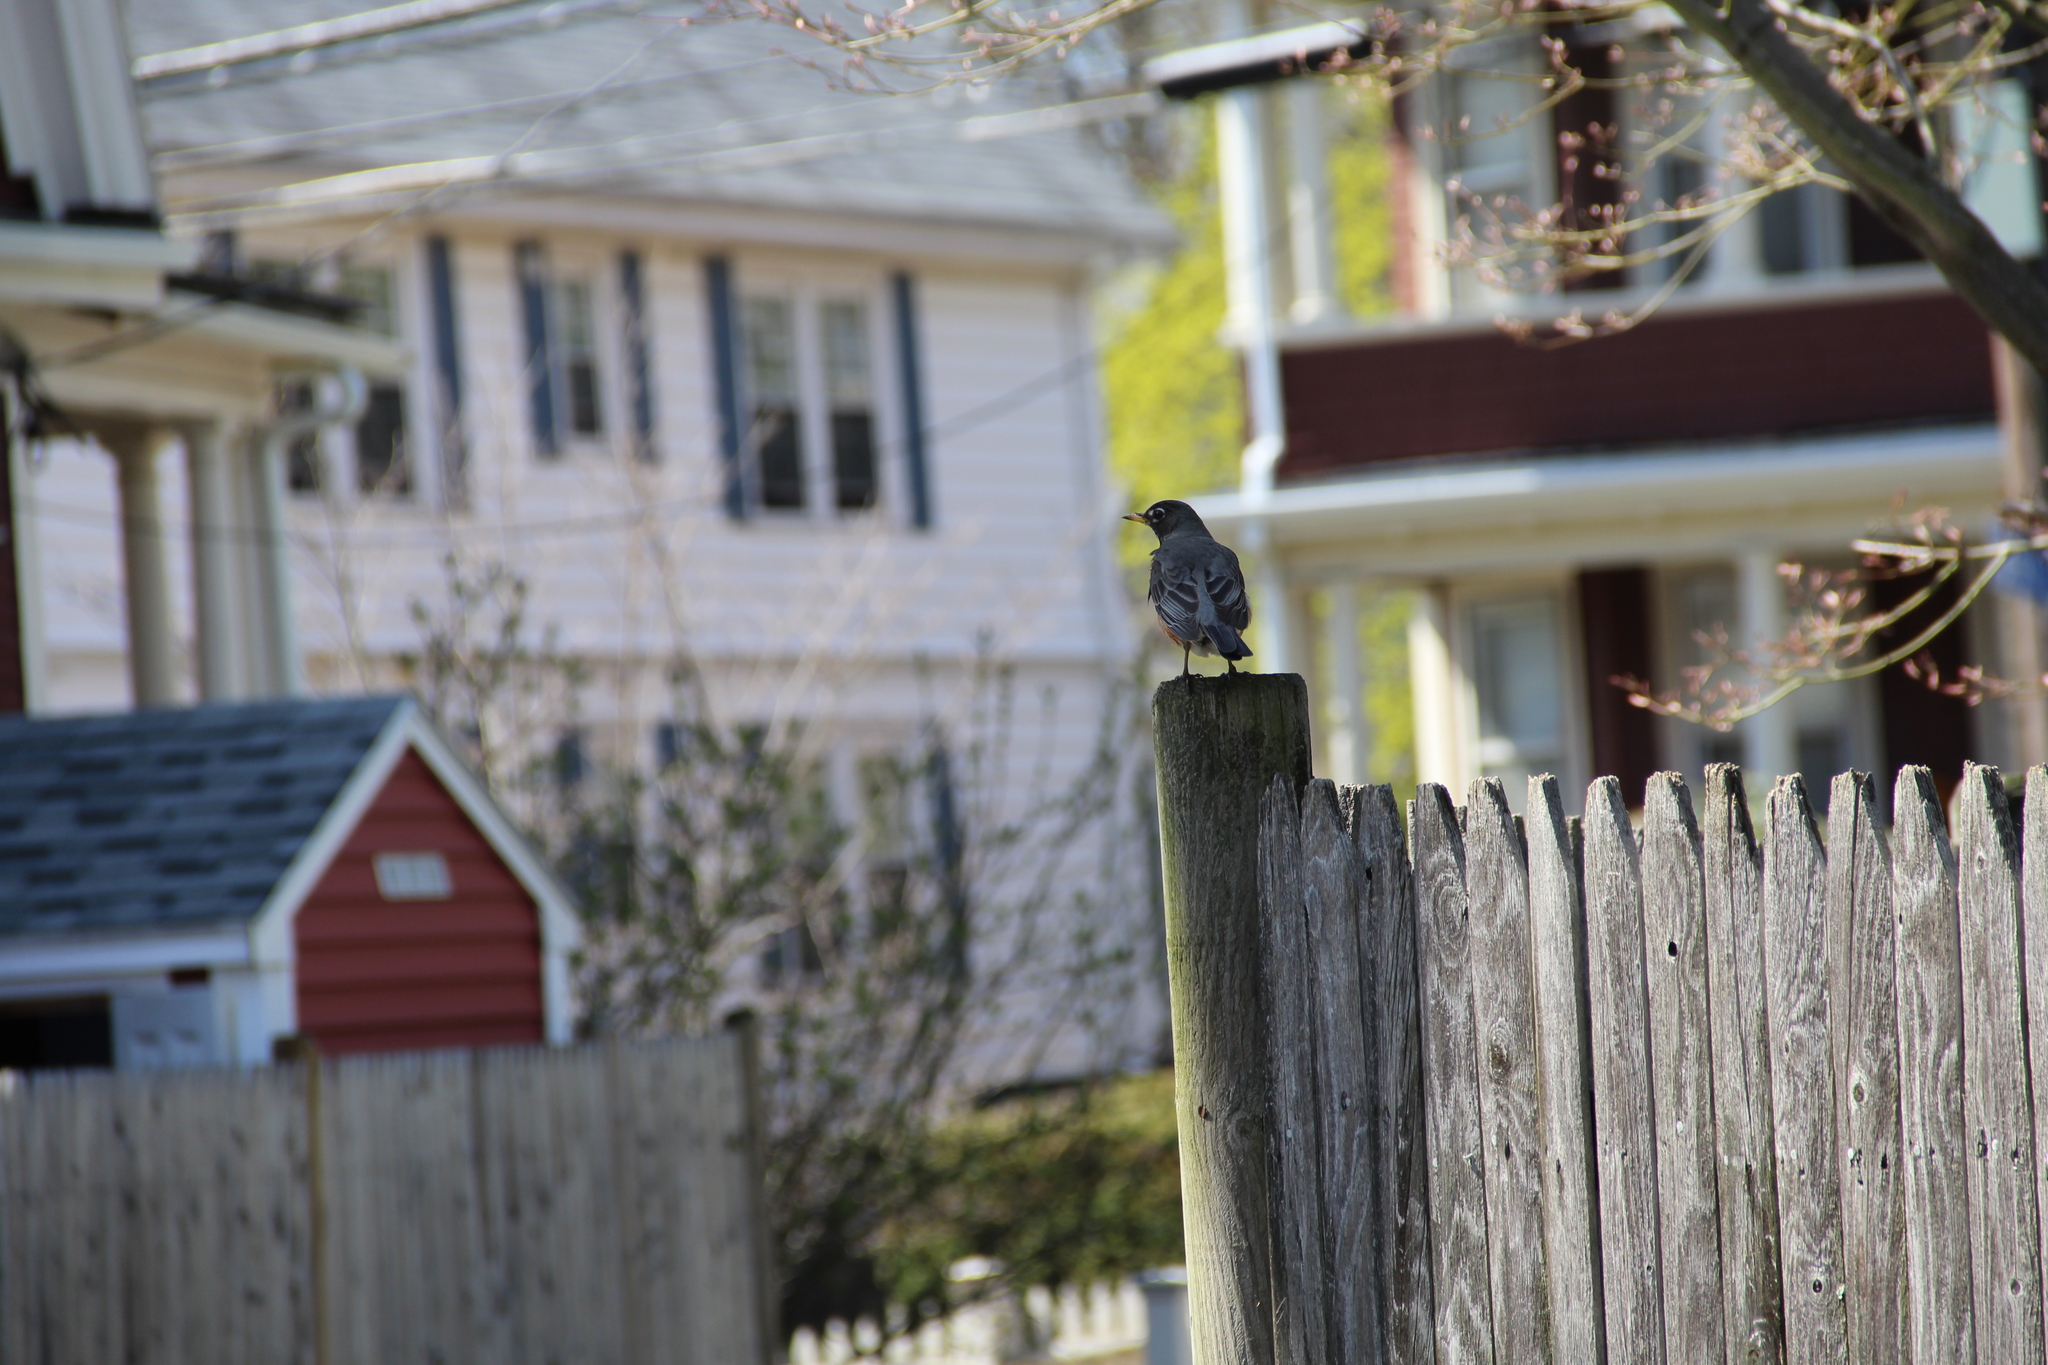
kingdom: Animalia
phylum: Chordata
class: Aves
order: Passeriformes
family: Turdidae
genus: Turdus
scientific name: Turdus migratorius
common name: American robin
